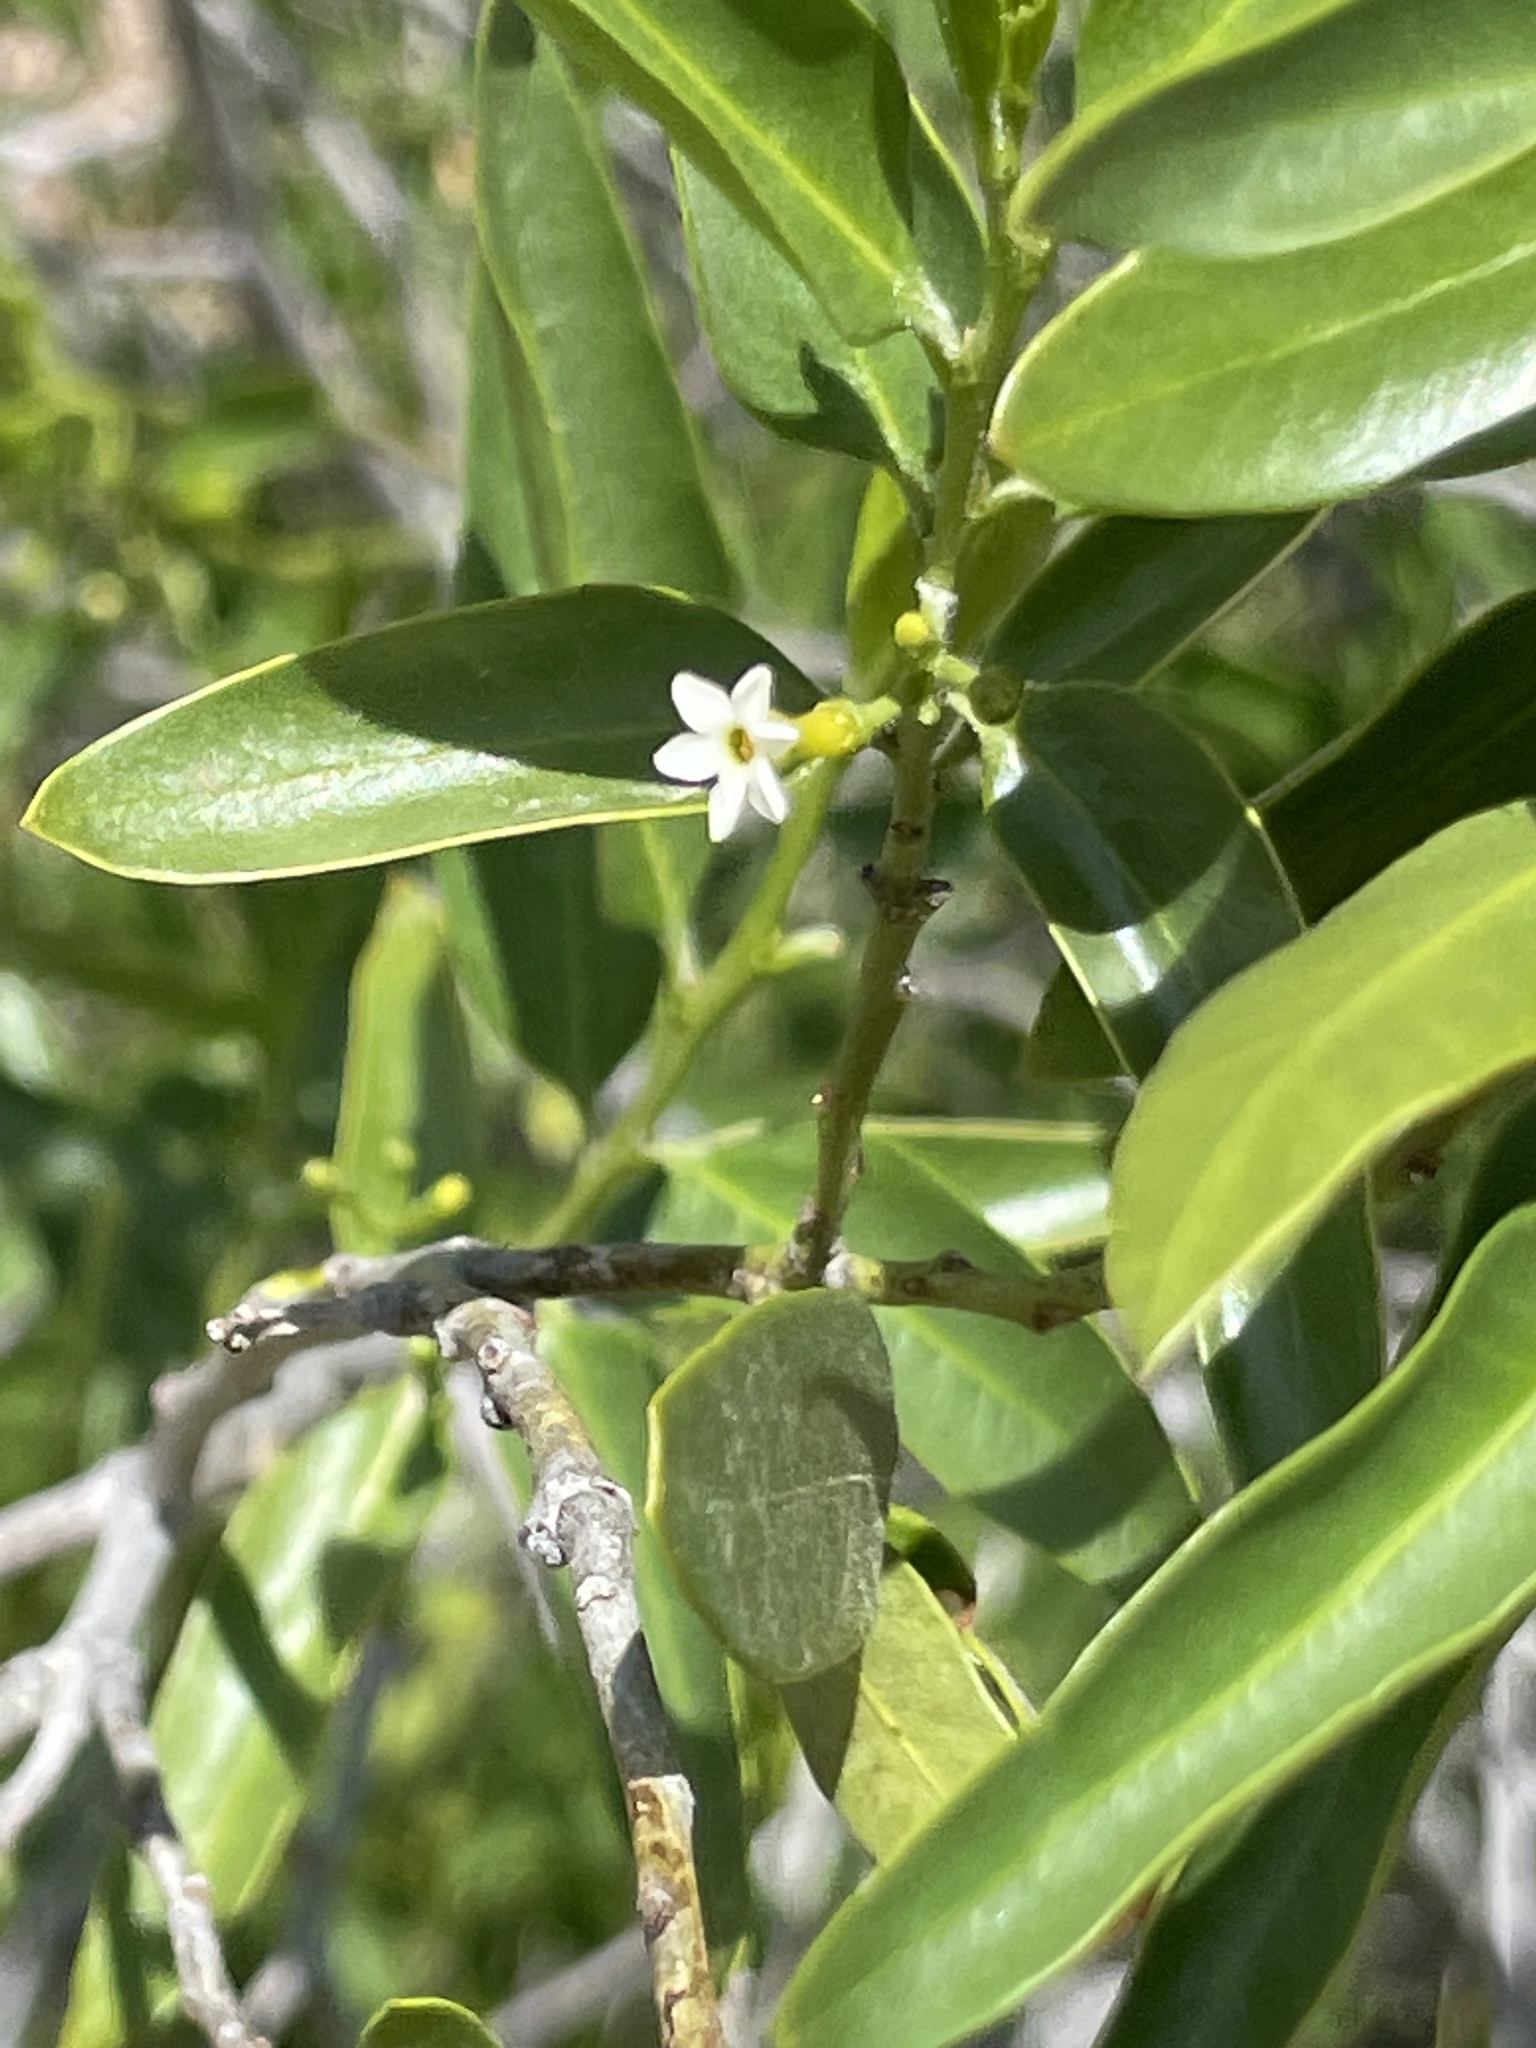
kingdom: Plantae
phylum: Tracheophyta
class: Magnoliopsida
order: Gentianales
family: Apocynaceae
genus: Vallesia
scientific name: Vallesia glabra
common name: Pearlberry
